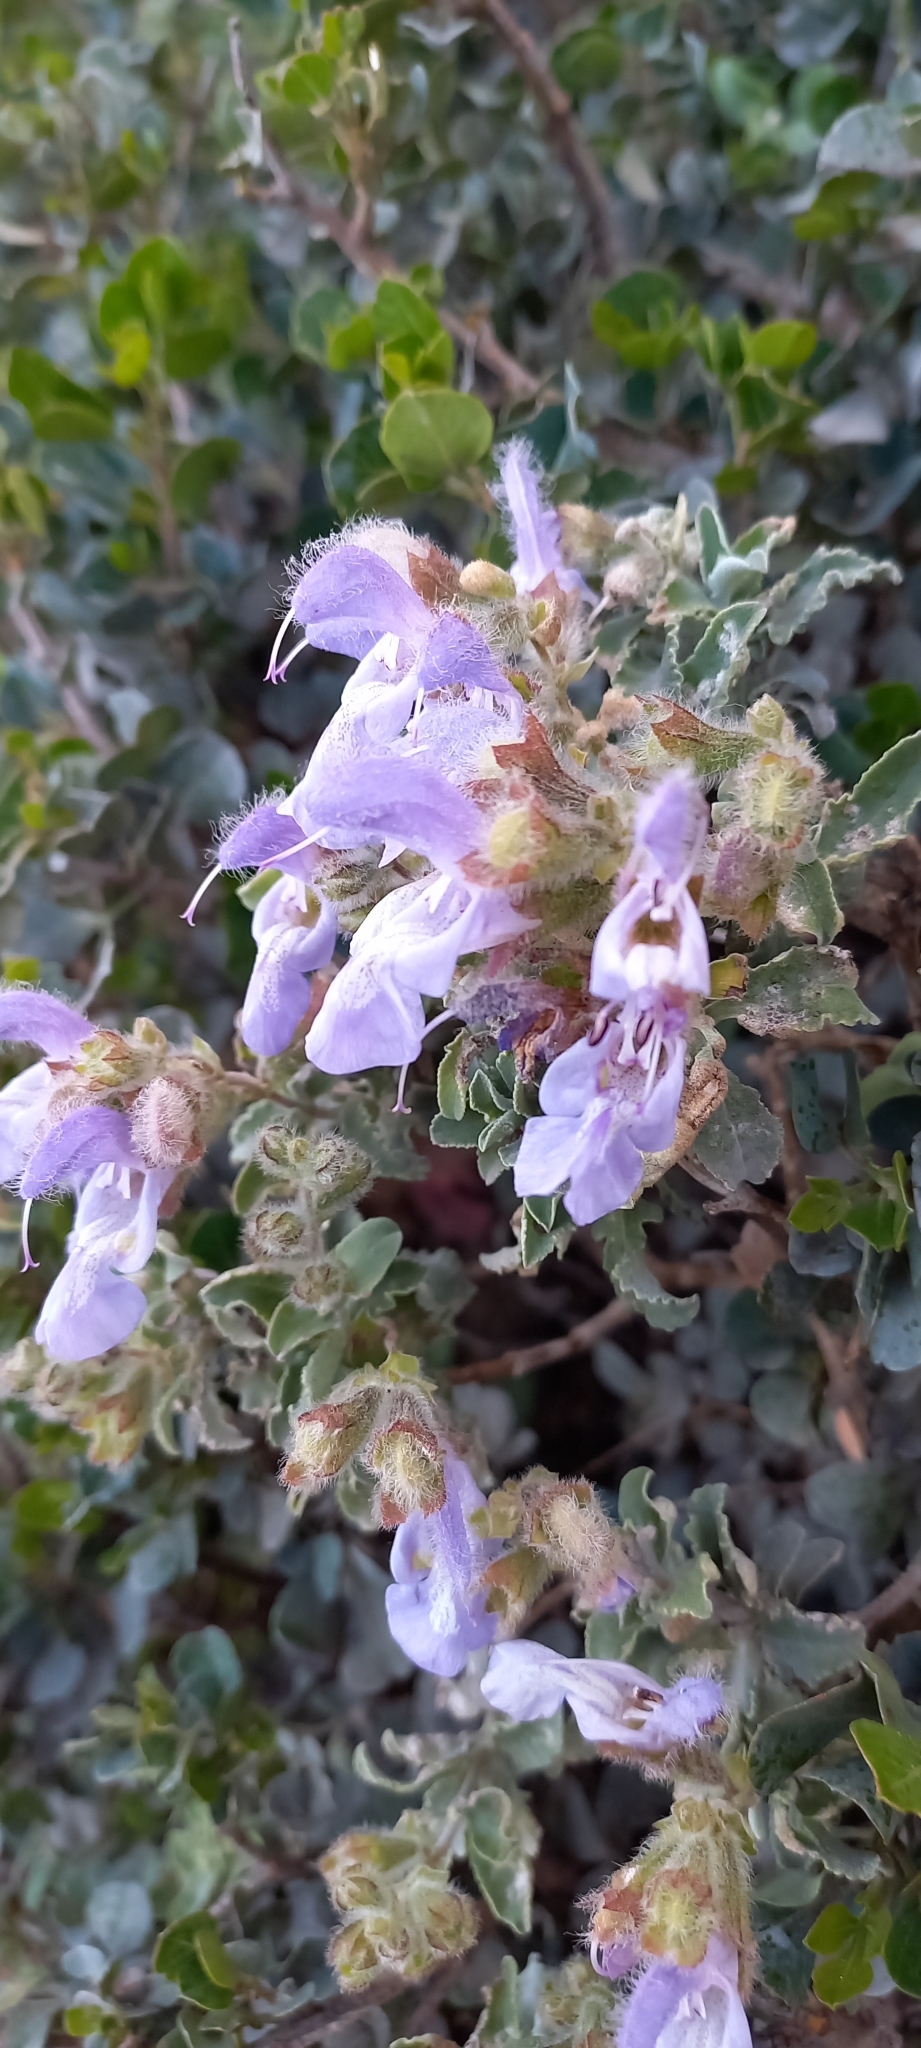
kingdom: Plantae
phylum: Tracheophyta
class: Magnoliopsida
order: Lamiales
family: Lamiaceae
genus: Salvia
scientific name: Salvia africana
